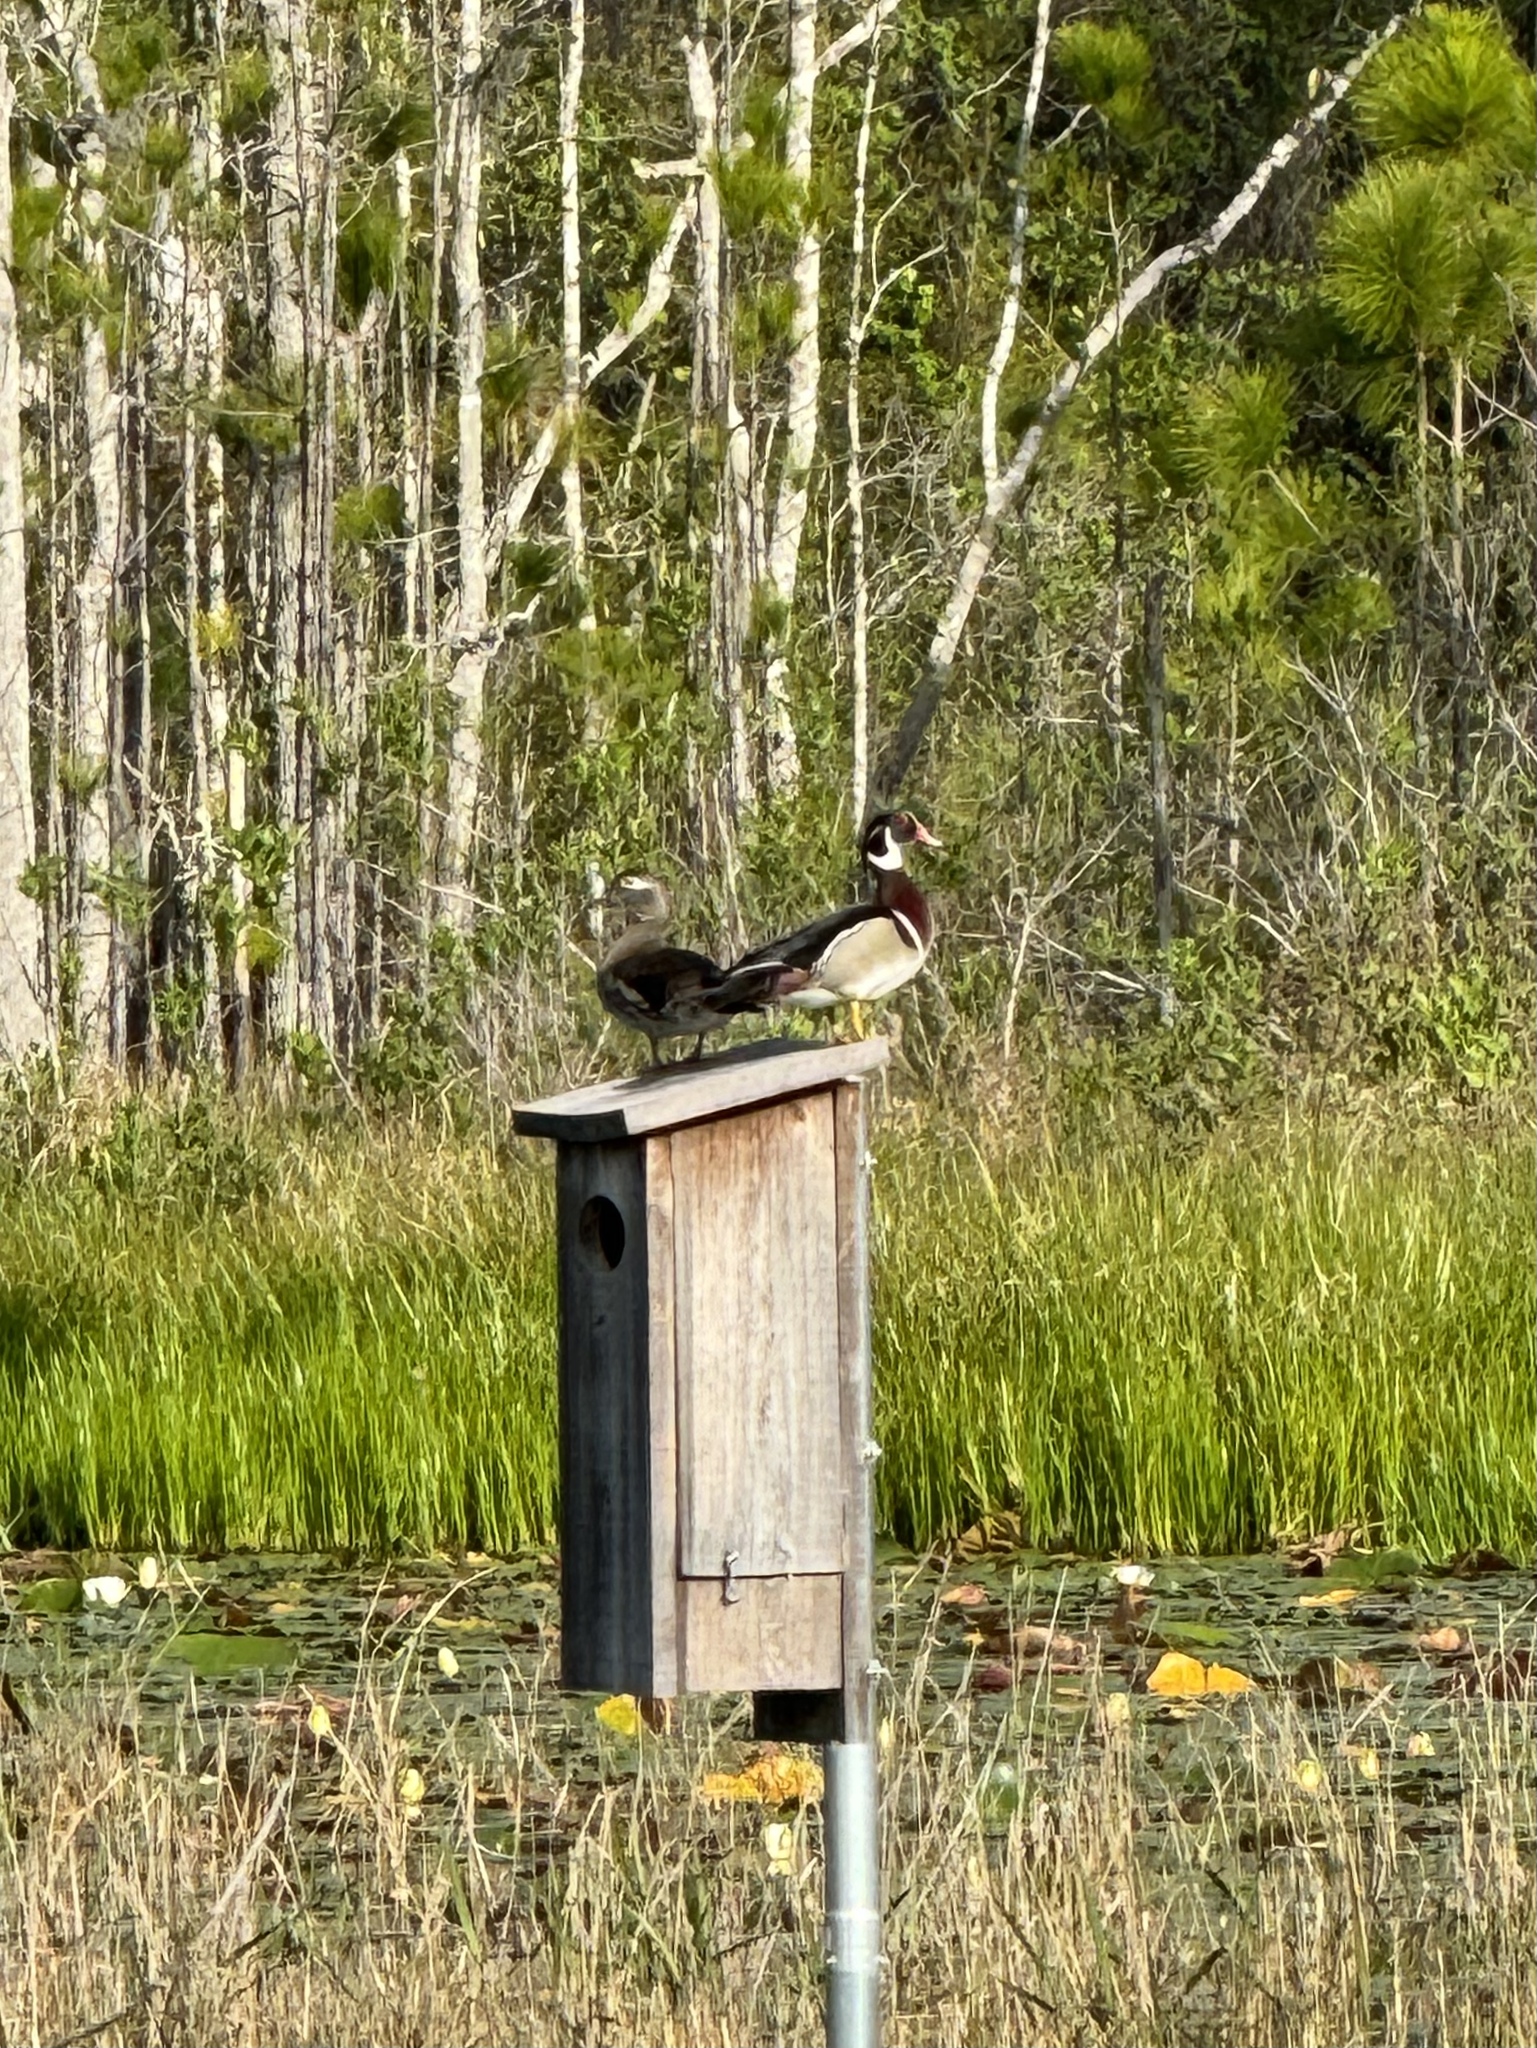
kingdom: Animalia
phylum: Chordata
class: Aves
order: Anseriformes
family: Anatidae
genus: Aix
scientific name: Aix sponsa
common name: Wood duck
